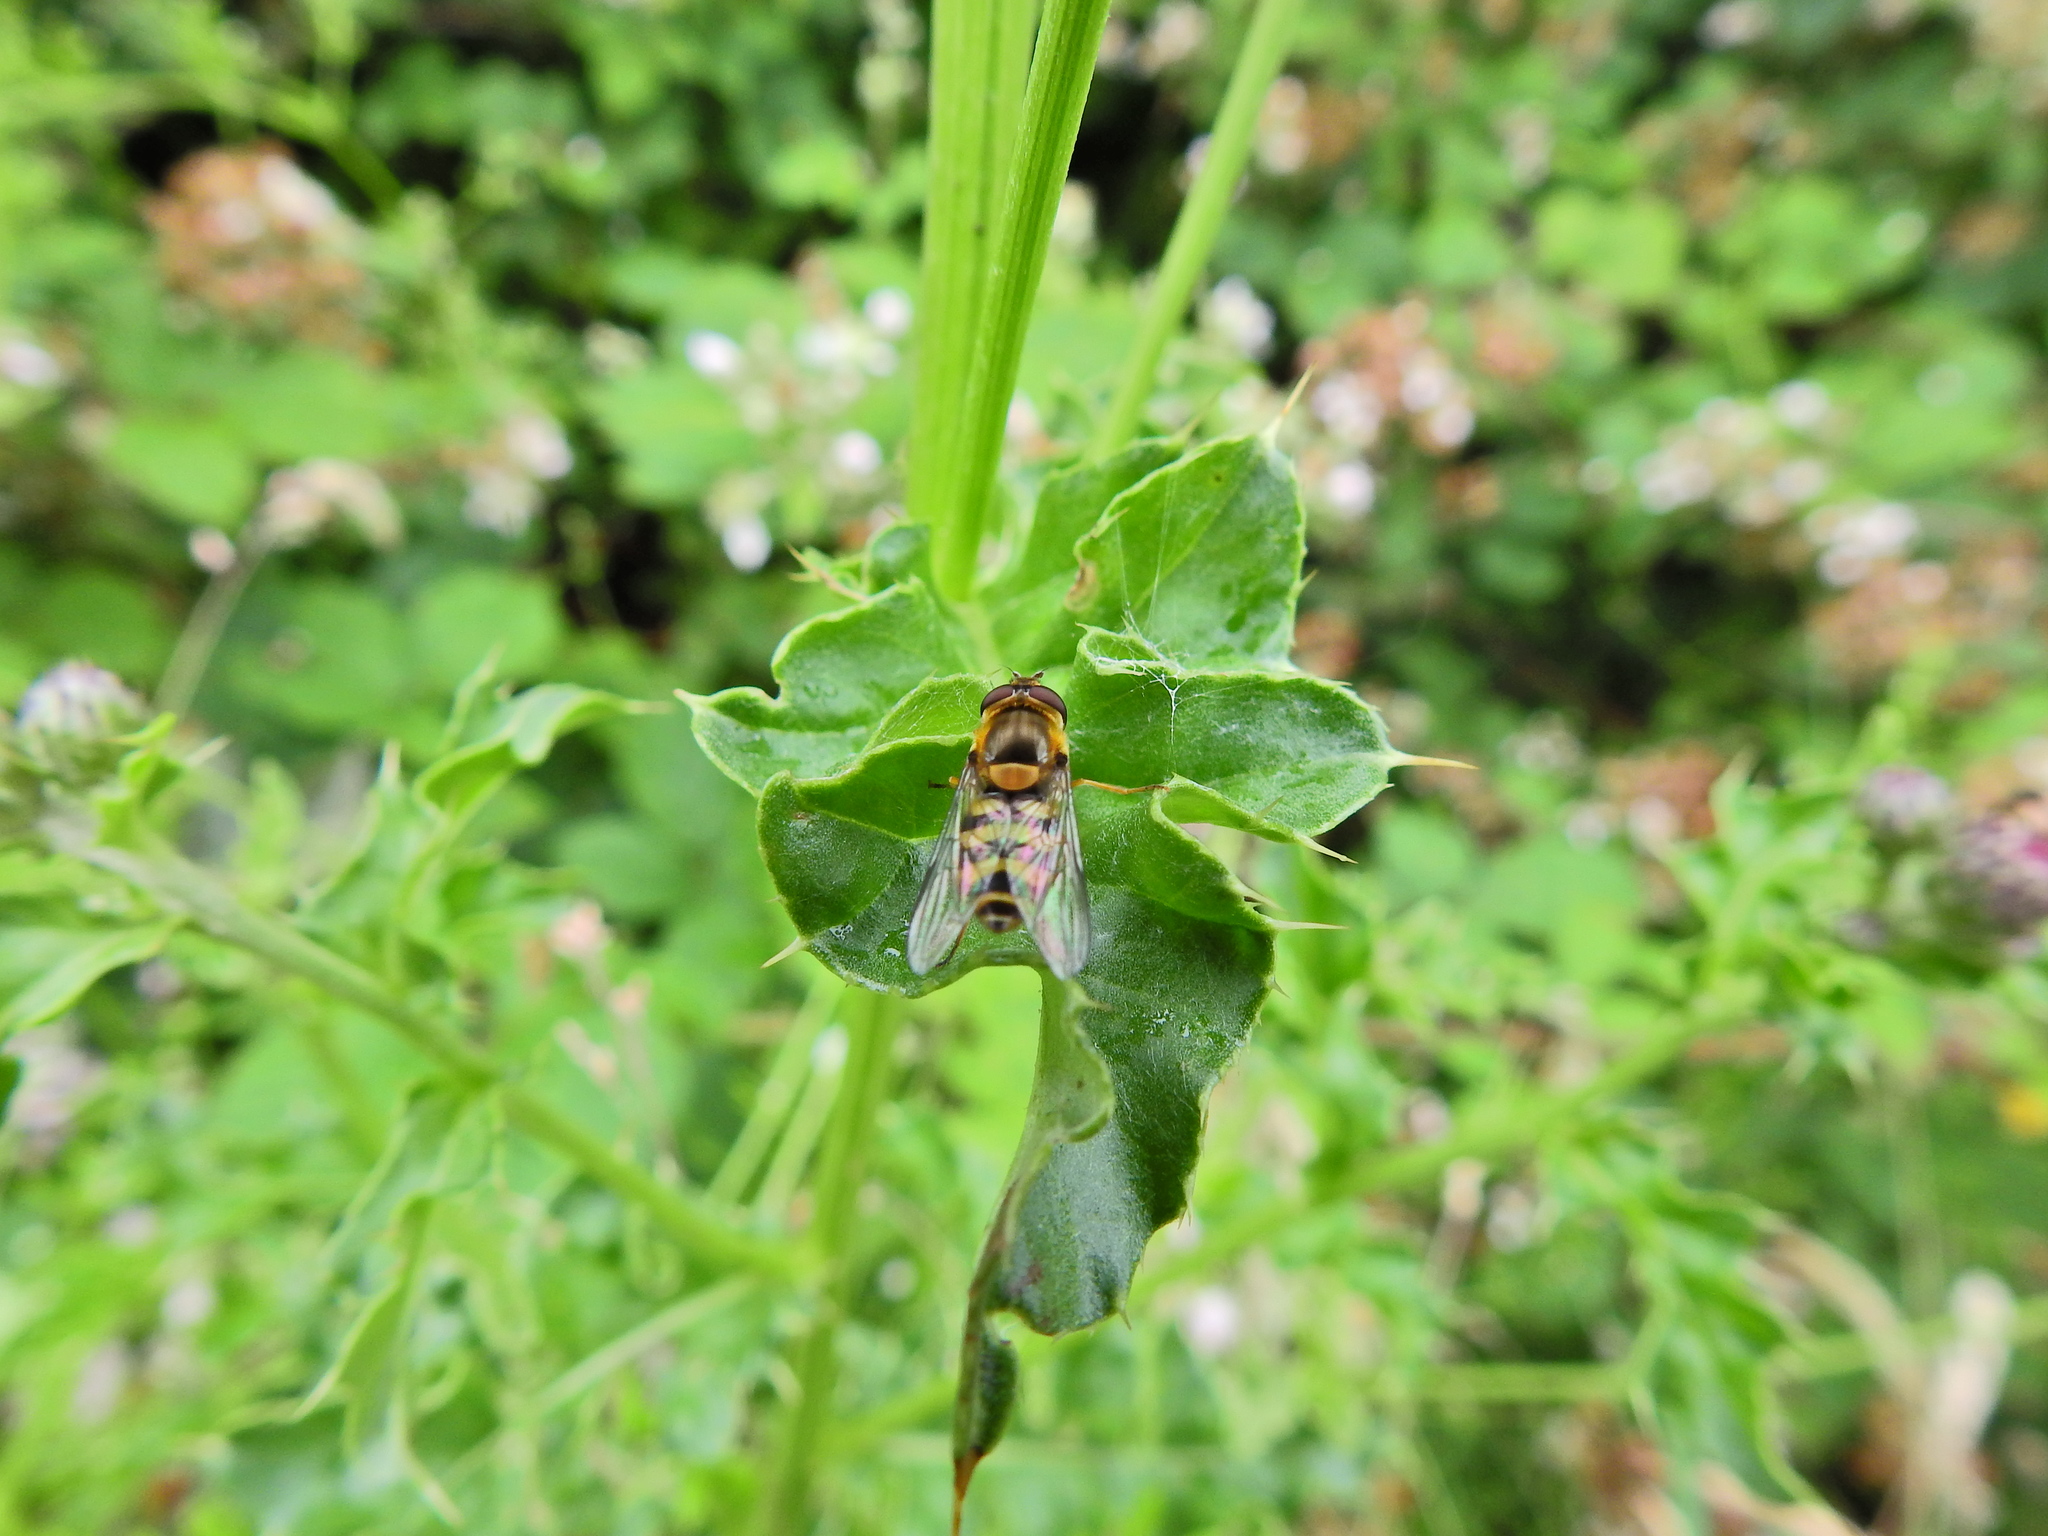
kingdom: Animalia
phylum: Arthropoda
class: Insecta
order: Diptera
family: Syrphidae
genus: Syrphus
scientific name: Syrphus
